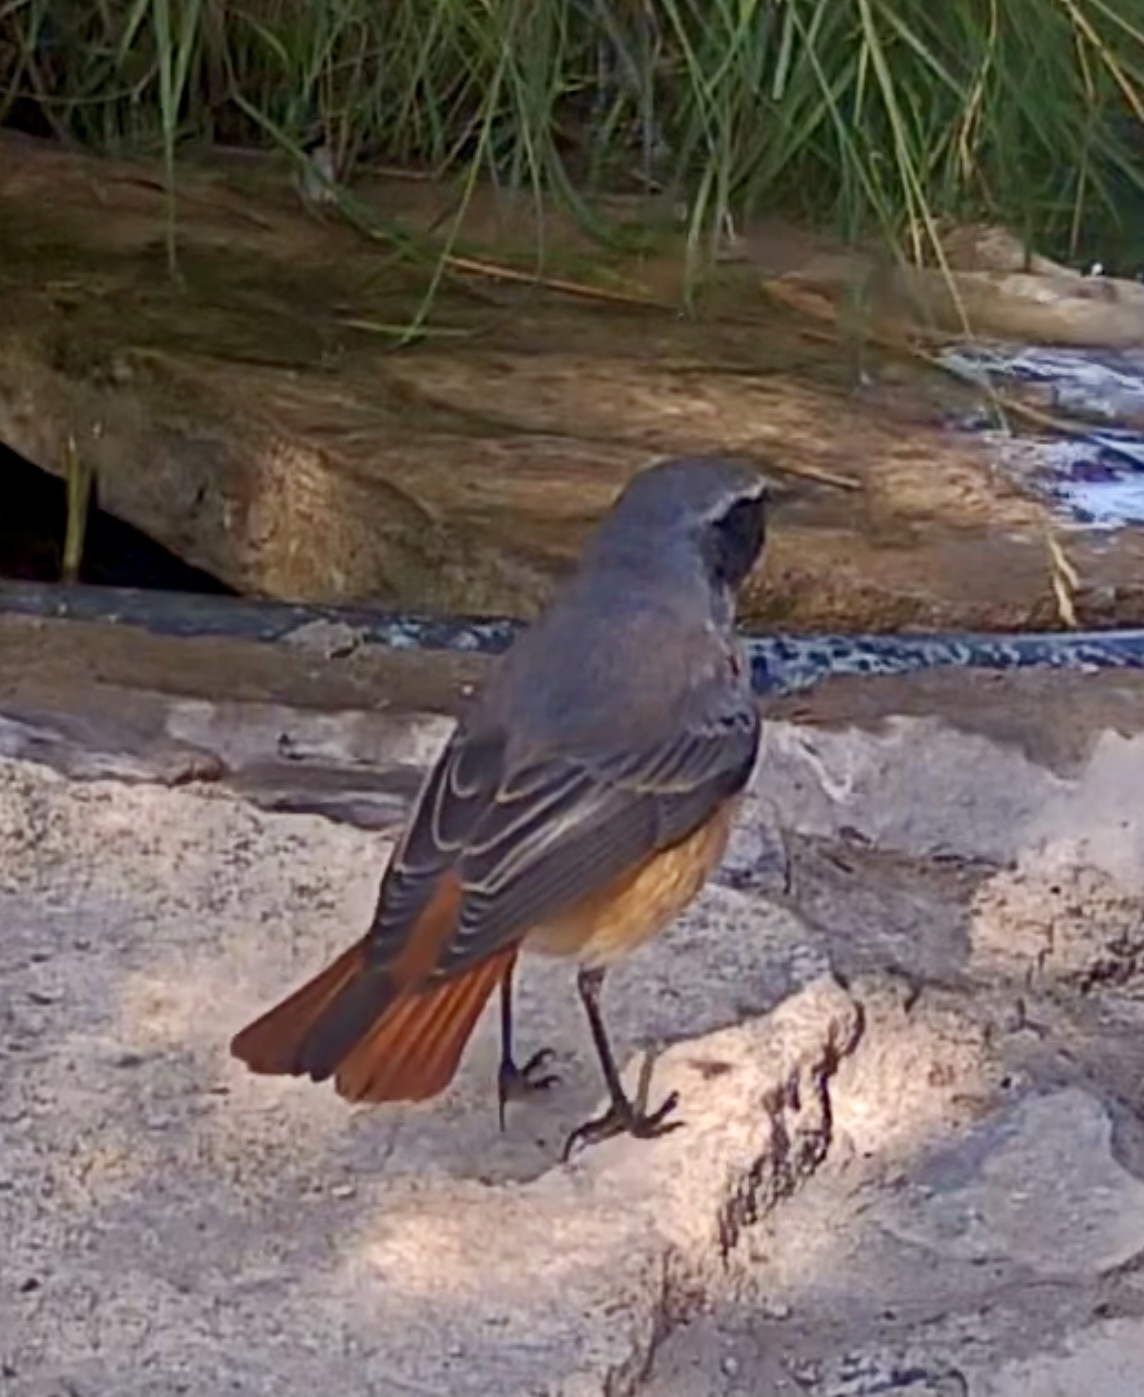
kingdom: Animalia
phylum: Chordata
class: Aves
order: Passeriformes
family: Muscicapidae
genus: Phoenicurus
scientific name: Phoenicurus phoenicurus
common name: Common redstart
